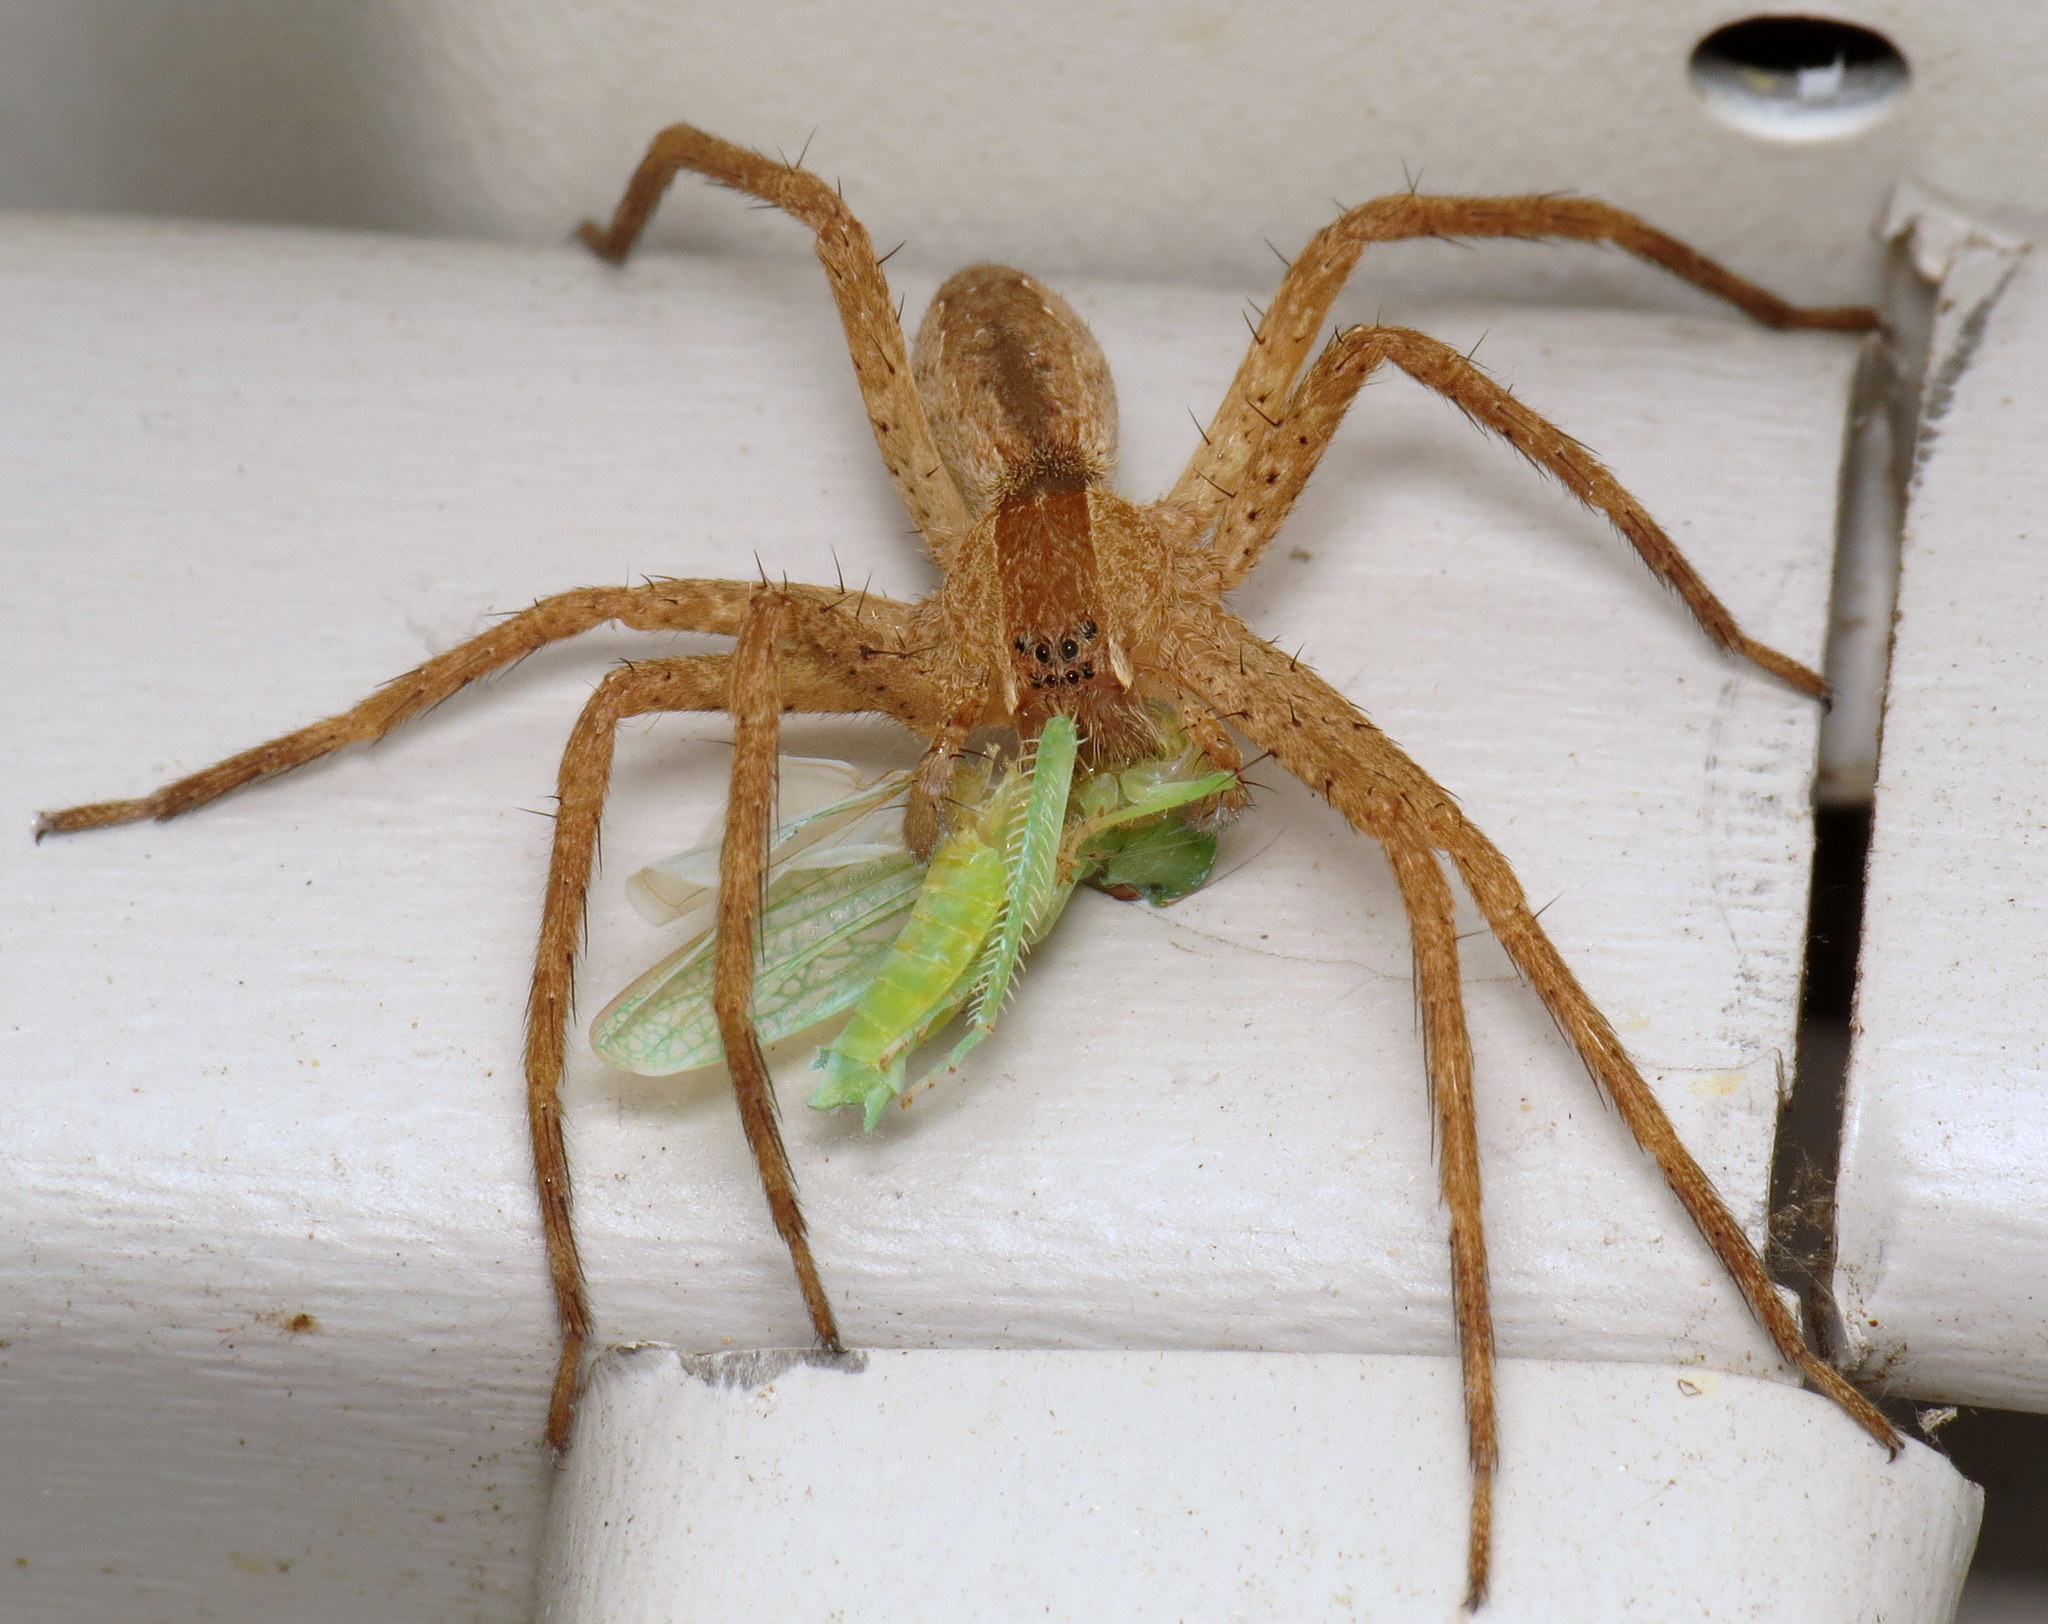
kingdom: Animalia
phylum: Arthropoda
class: Arachnida
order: Araneae
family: Pisauridae
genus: Pisaurina
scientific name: Pisaurina mira
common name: American nursery web spider
